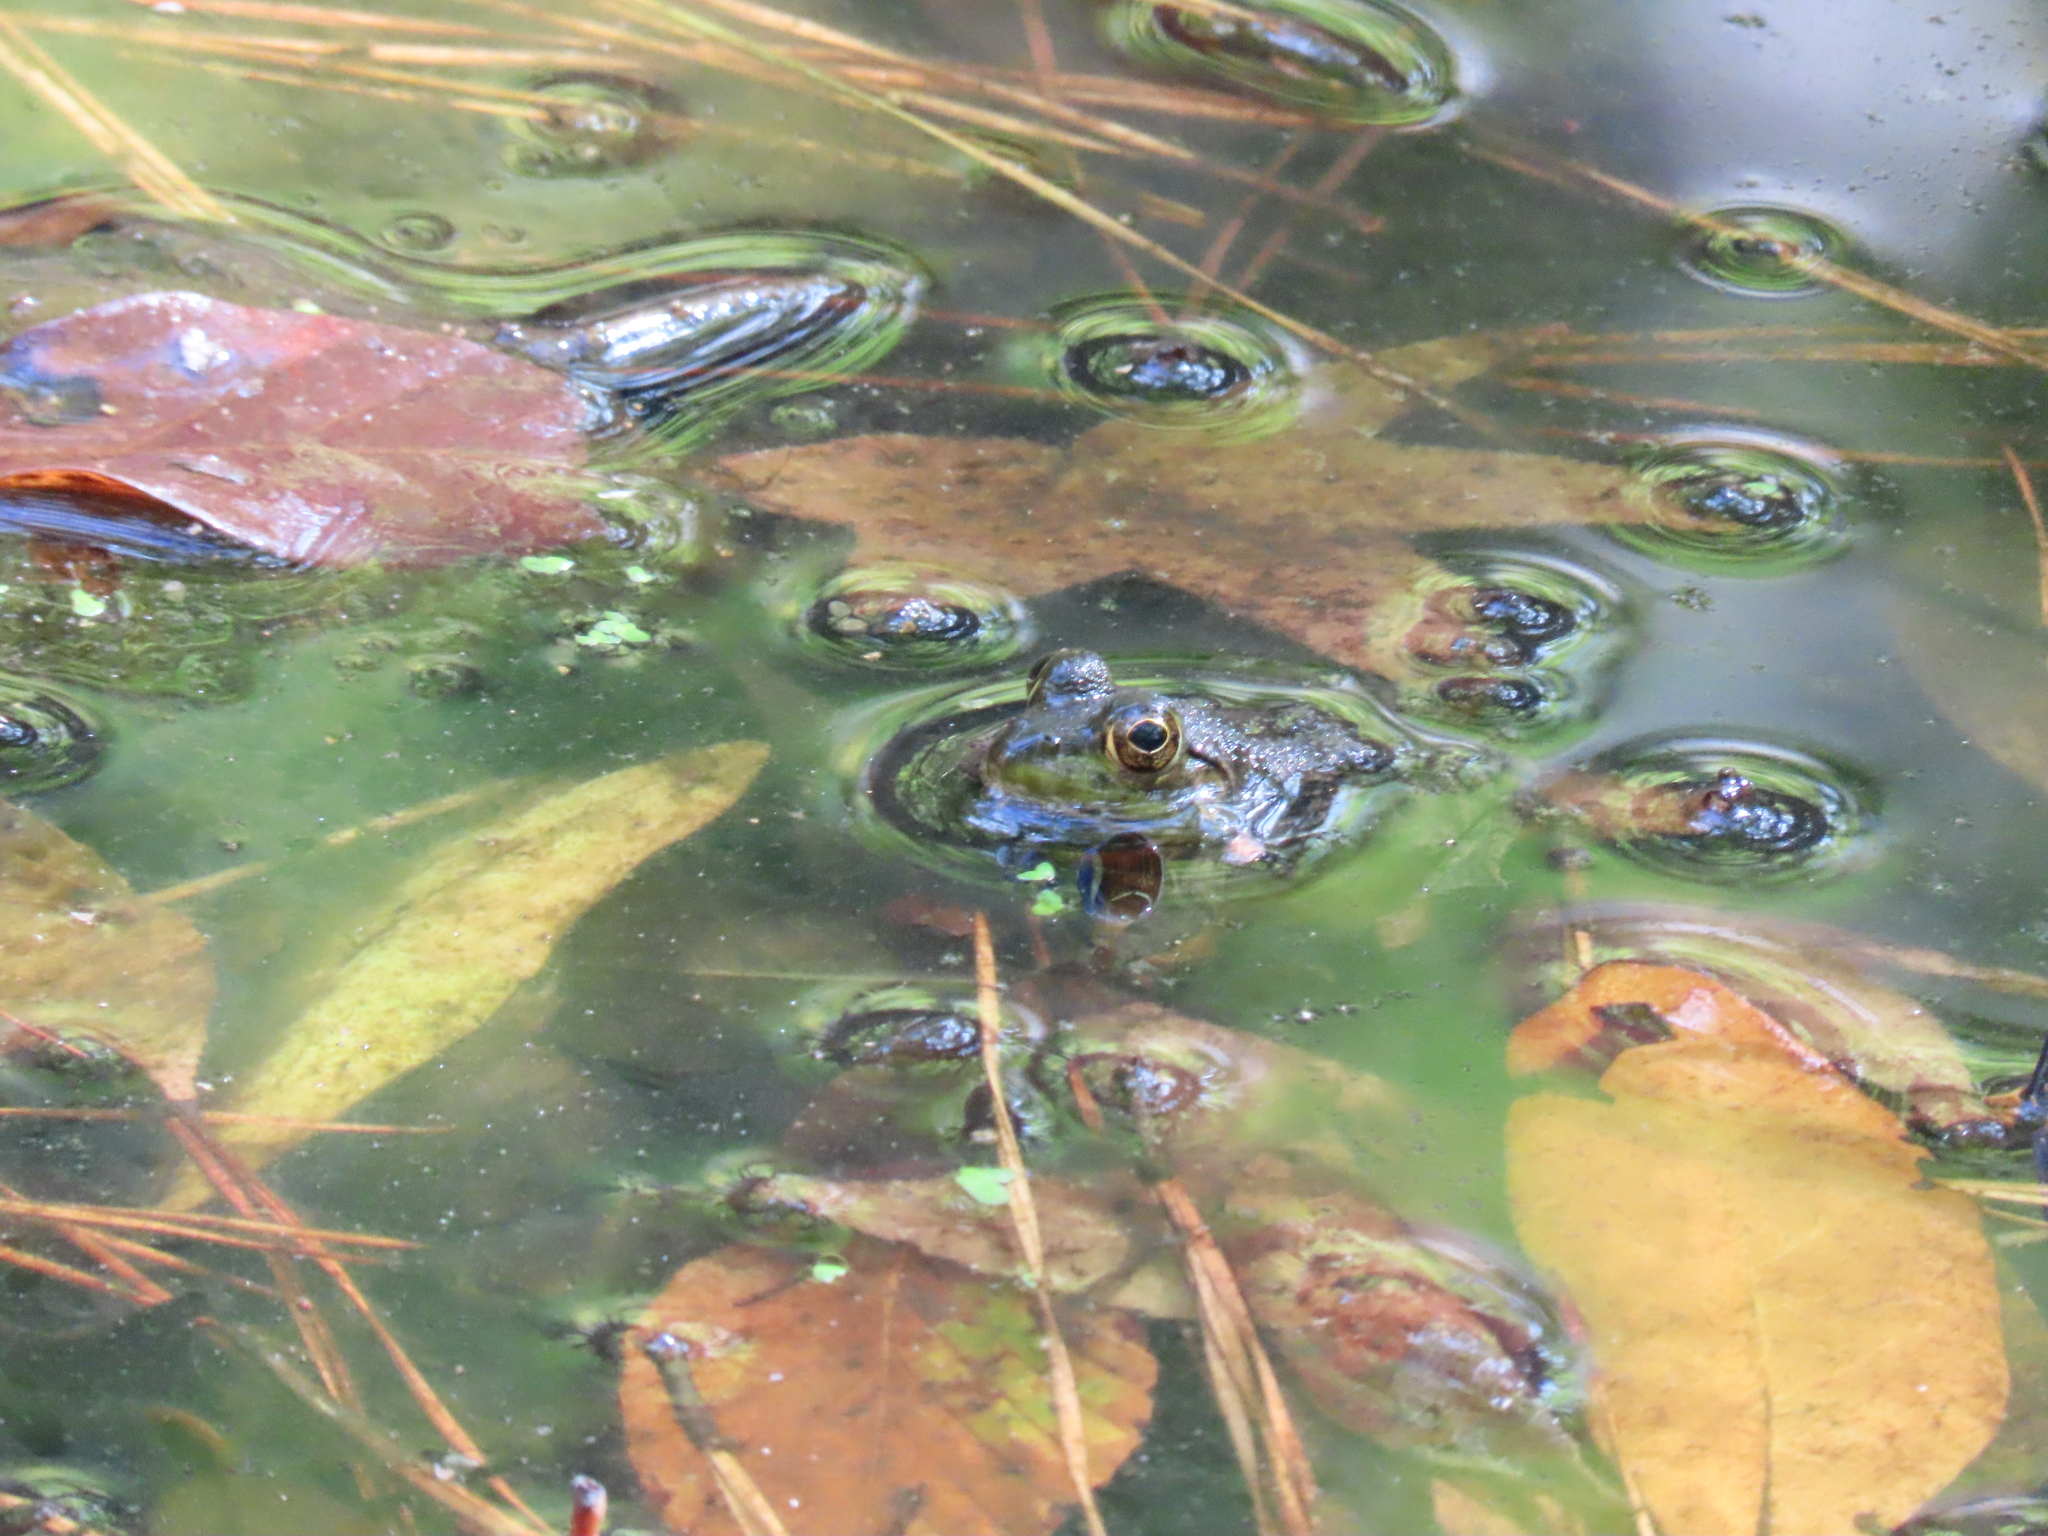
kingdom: Animalia
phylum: Chordata
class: Amphibia
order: Anura
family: Ranidae
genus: Lithobates
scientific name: Lithobates catesbeianus
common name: American bullfrog
